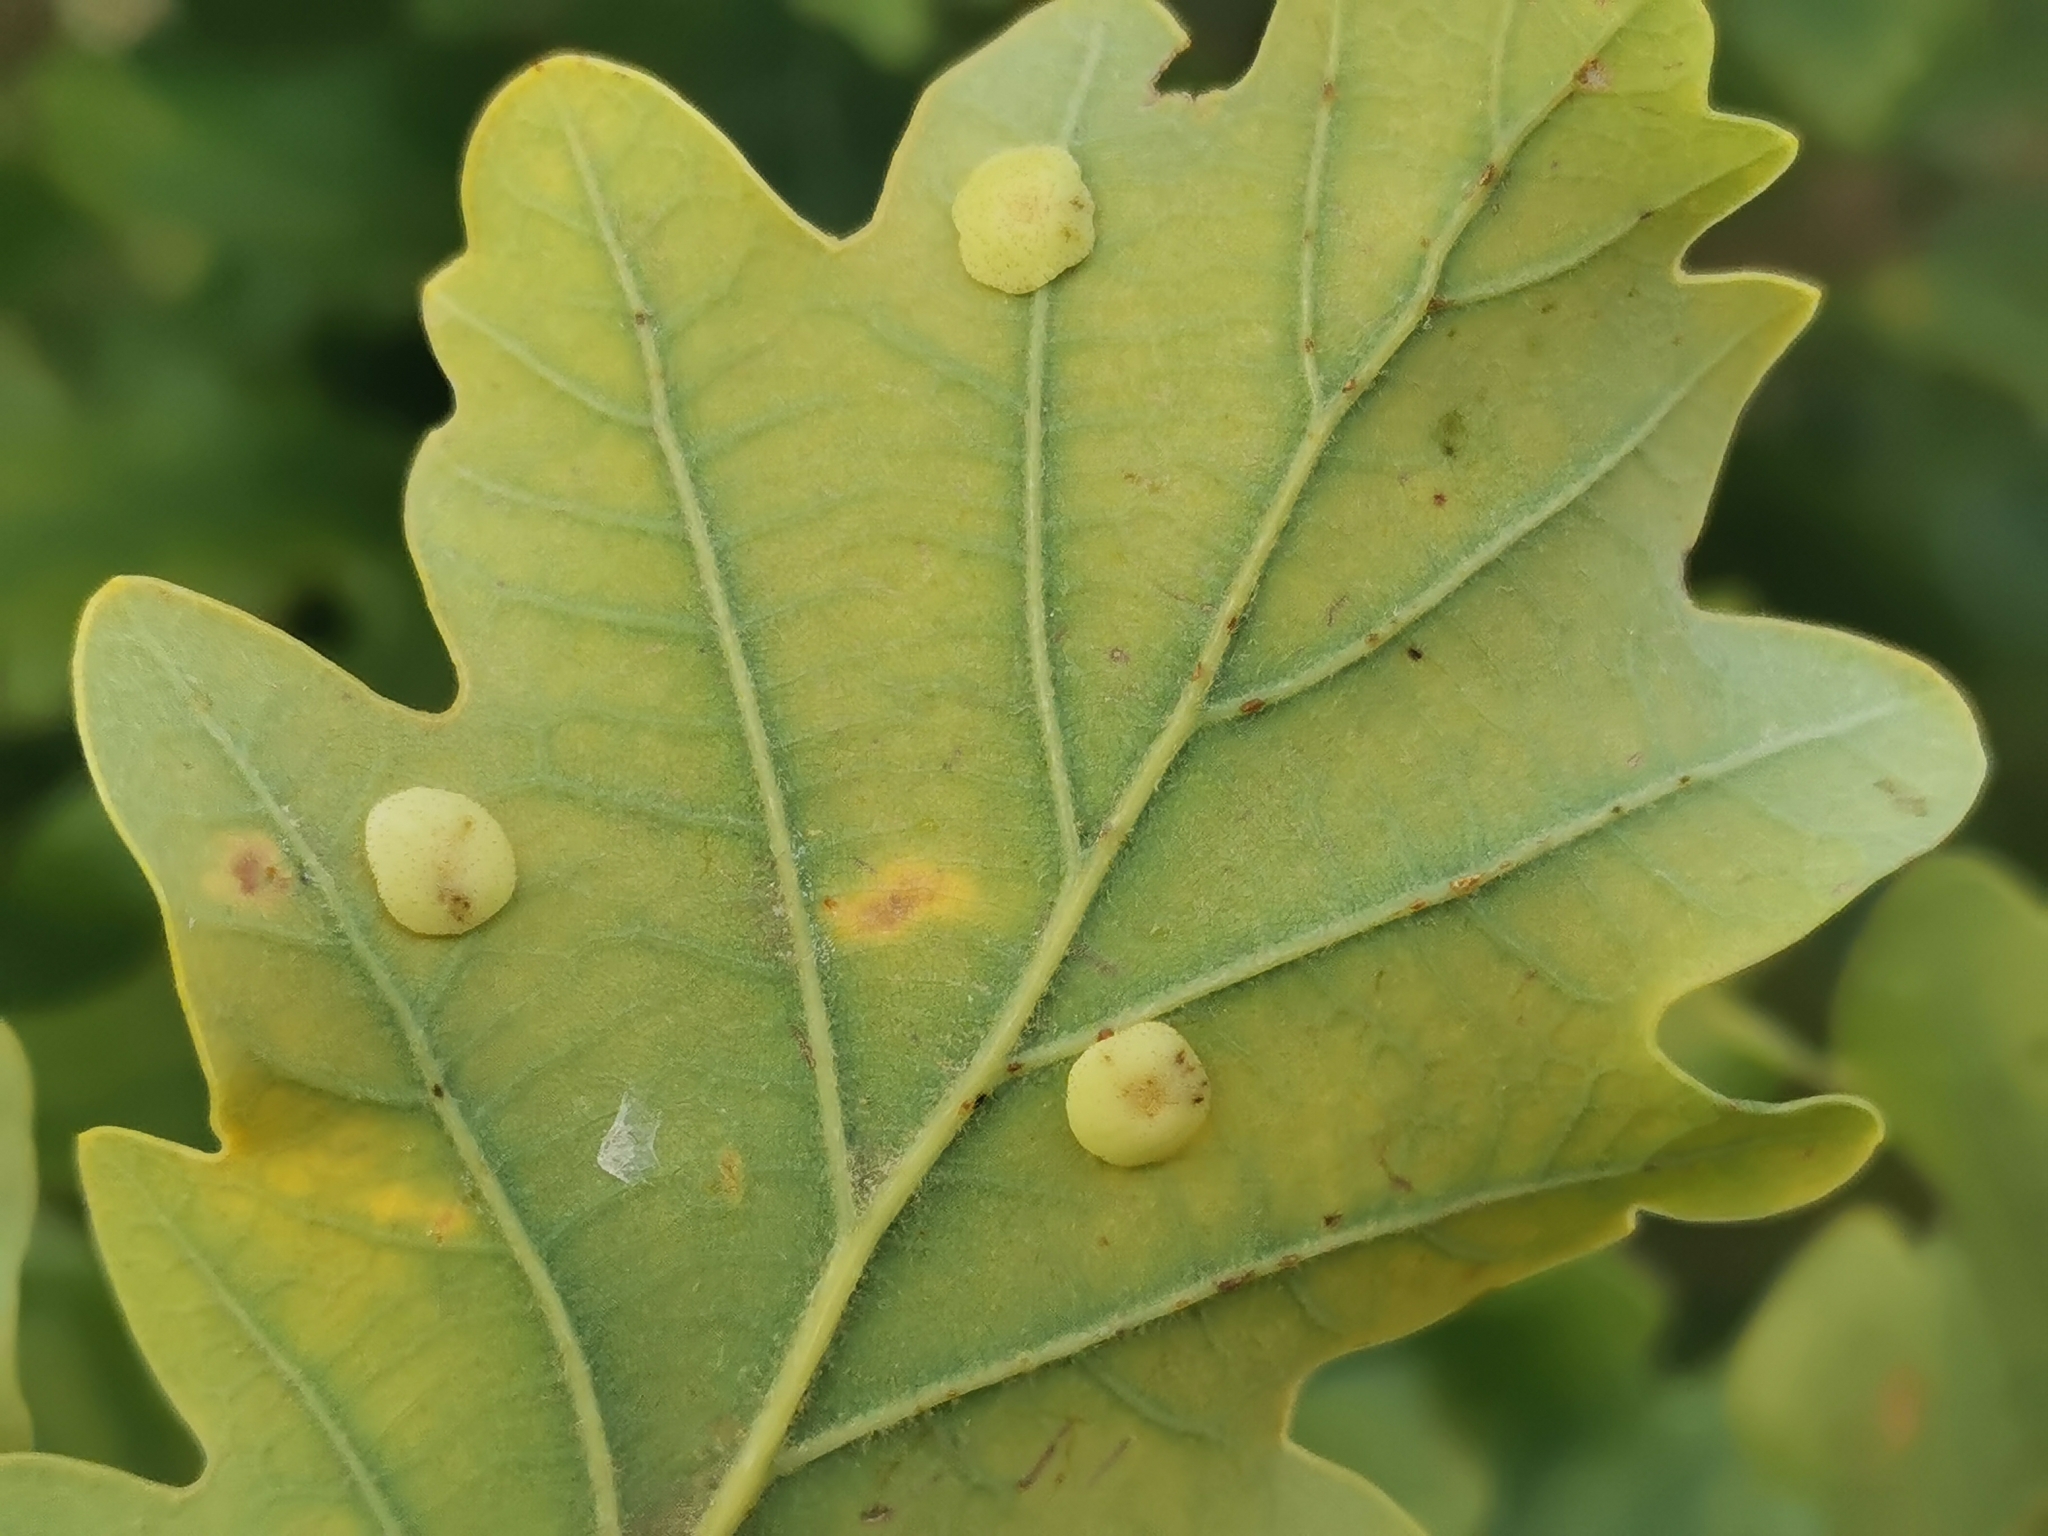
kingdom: Animalia
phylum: Arthropoda
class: Insecta
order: Hymenoptera
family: Cynipidae
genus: Neuroterus
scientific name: Neuroterus quercusbaccarum
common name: Common spangle gall
